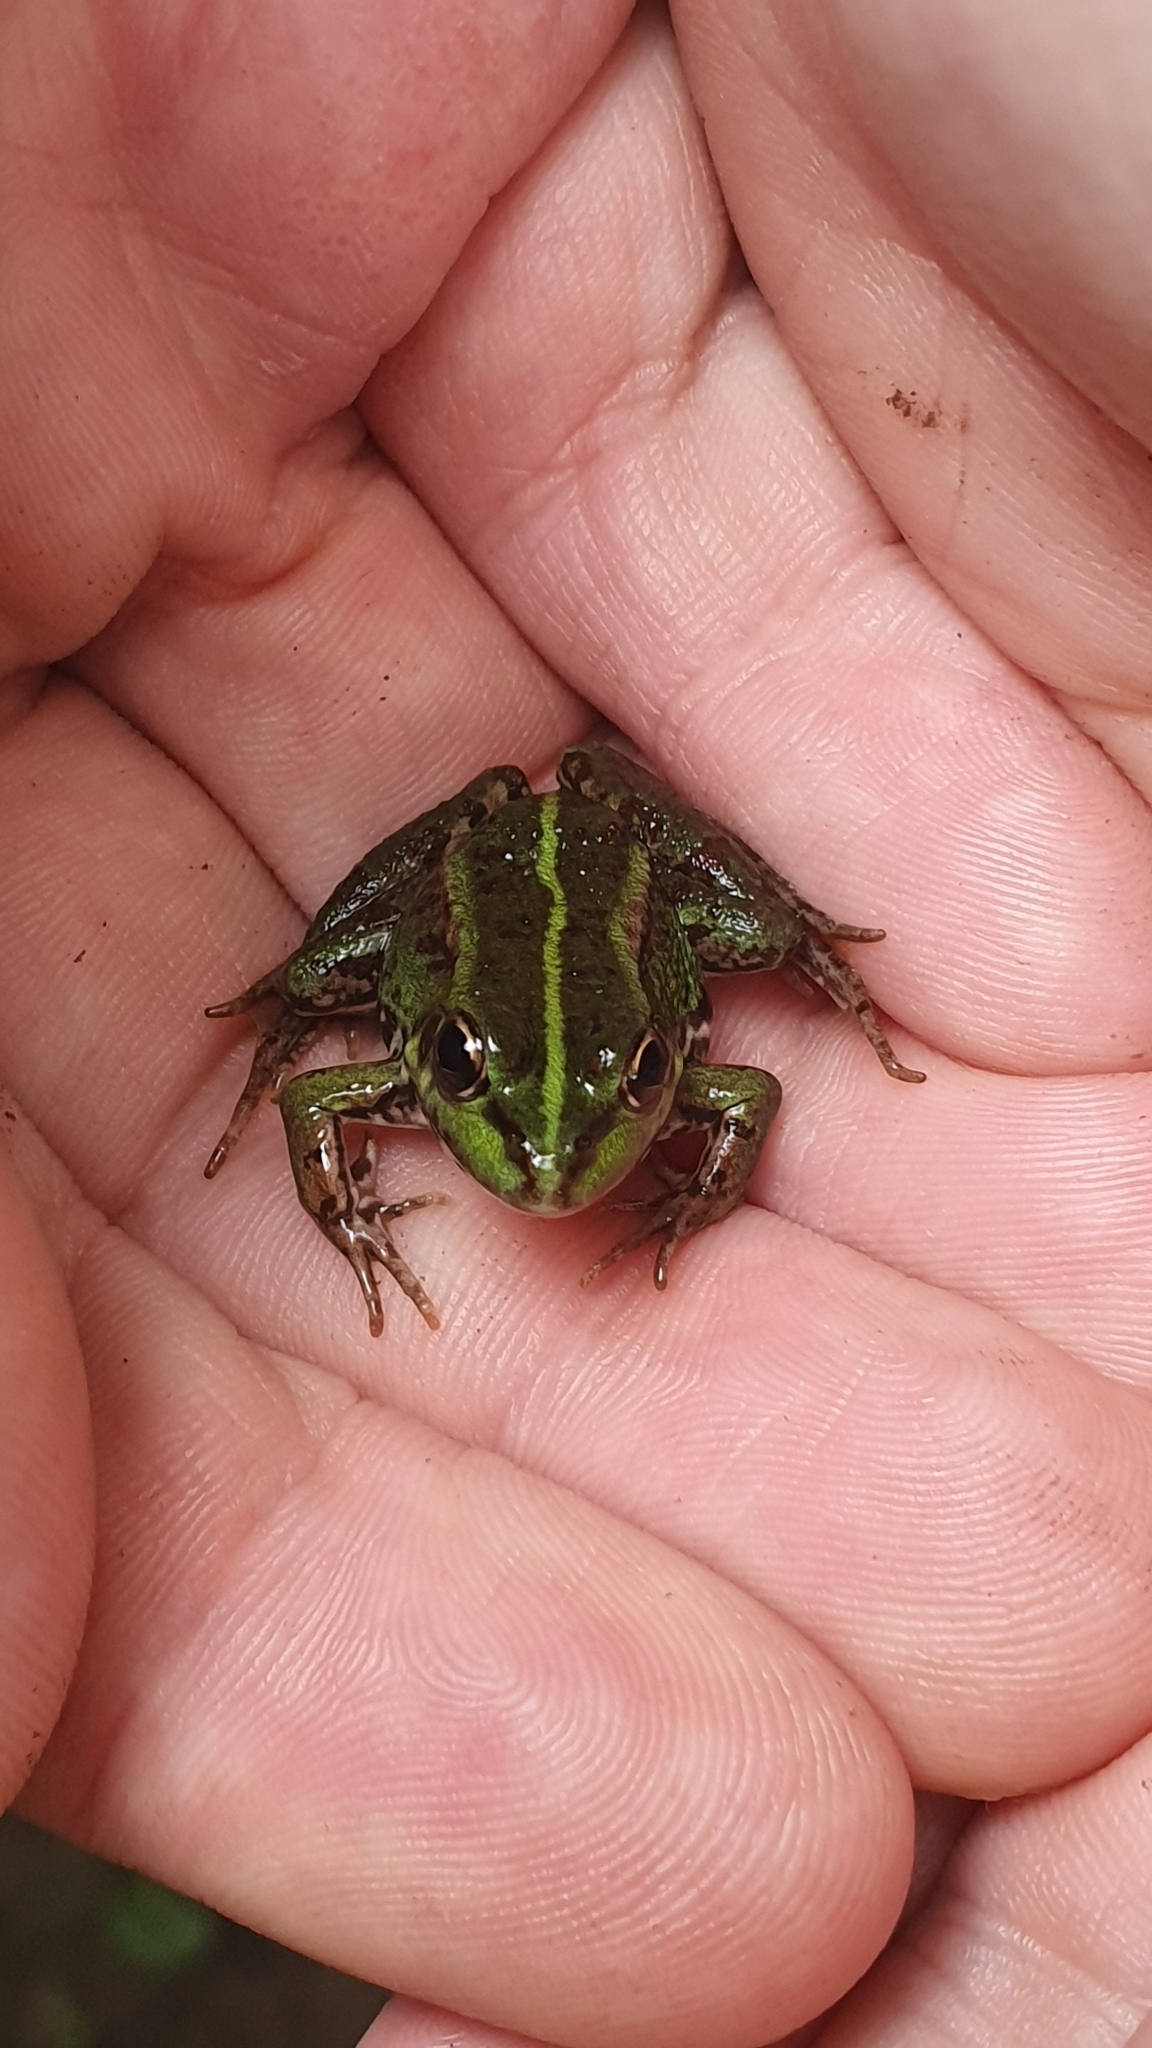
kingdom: Animalia
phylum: Chordata
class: Amphibia
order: Anura
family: Ranidae
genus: Pelophylax
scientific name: Pelophylax perezi
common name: Perez's frog
